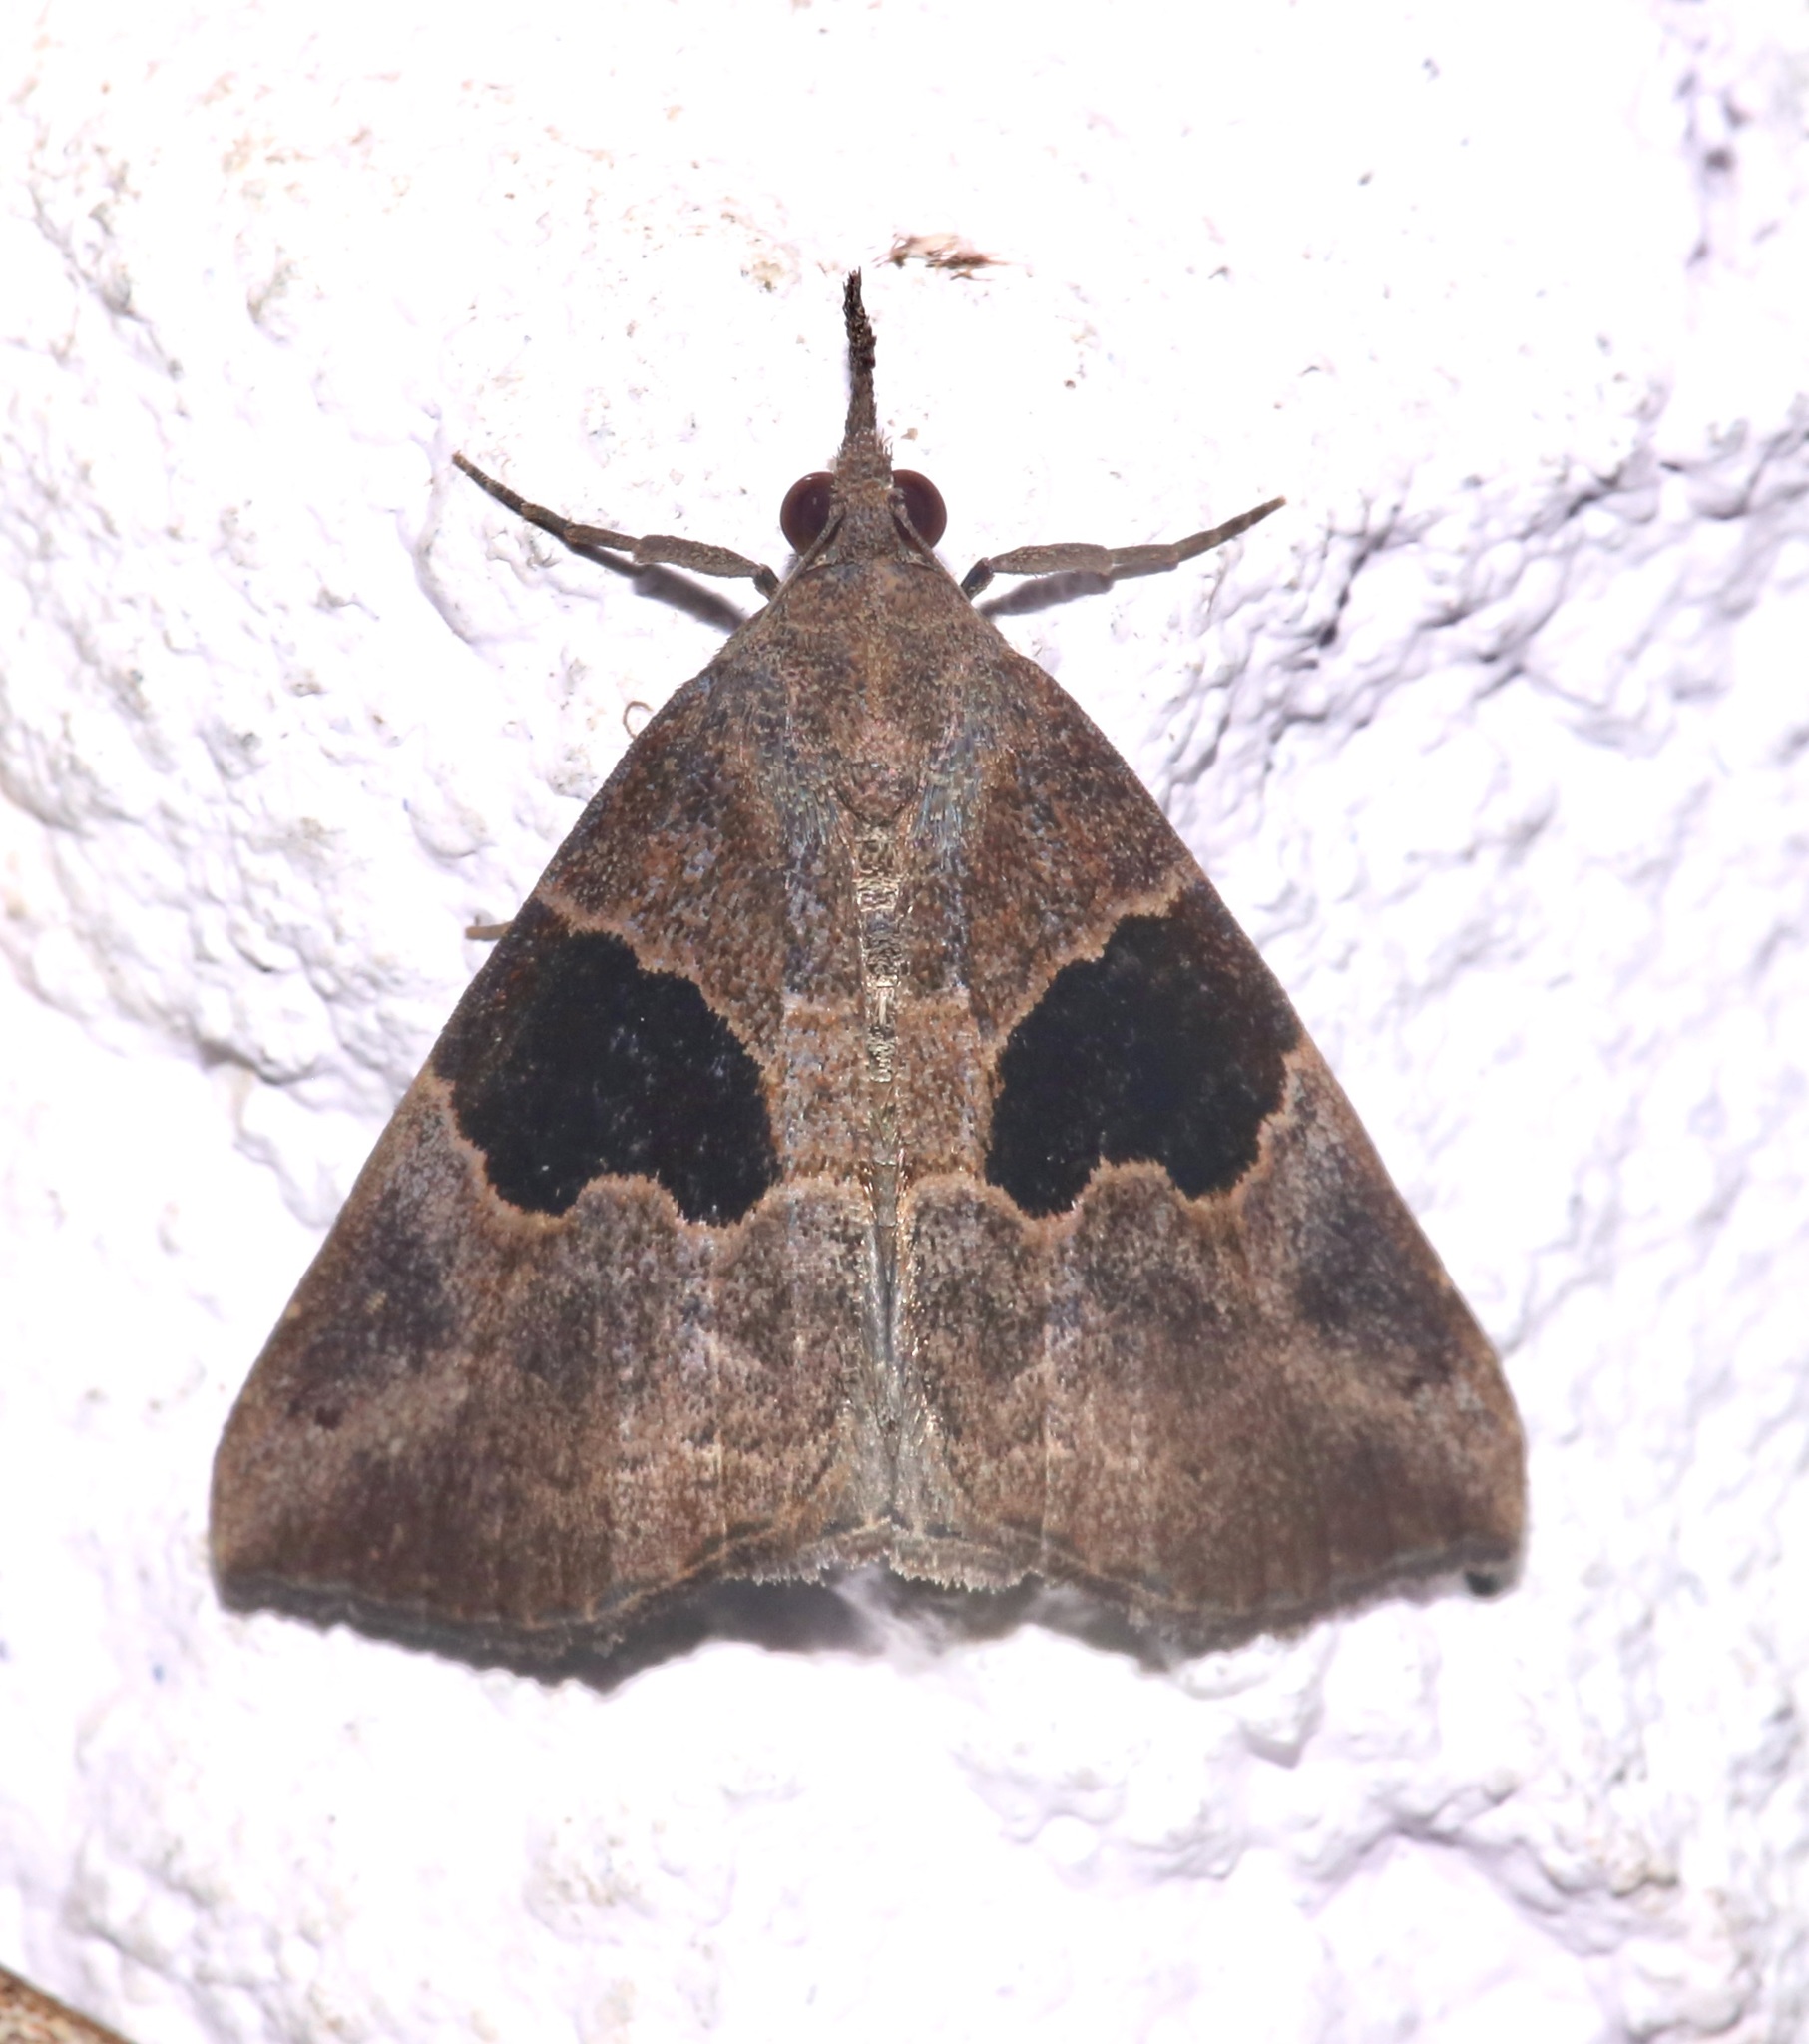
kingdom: Animalia
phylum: Arthropoda
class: Insecta
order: Lepidoptera
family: Erebidae
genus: Hypena
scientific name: Hypena drucealis
